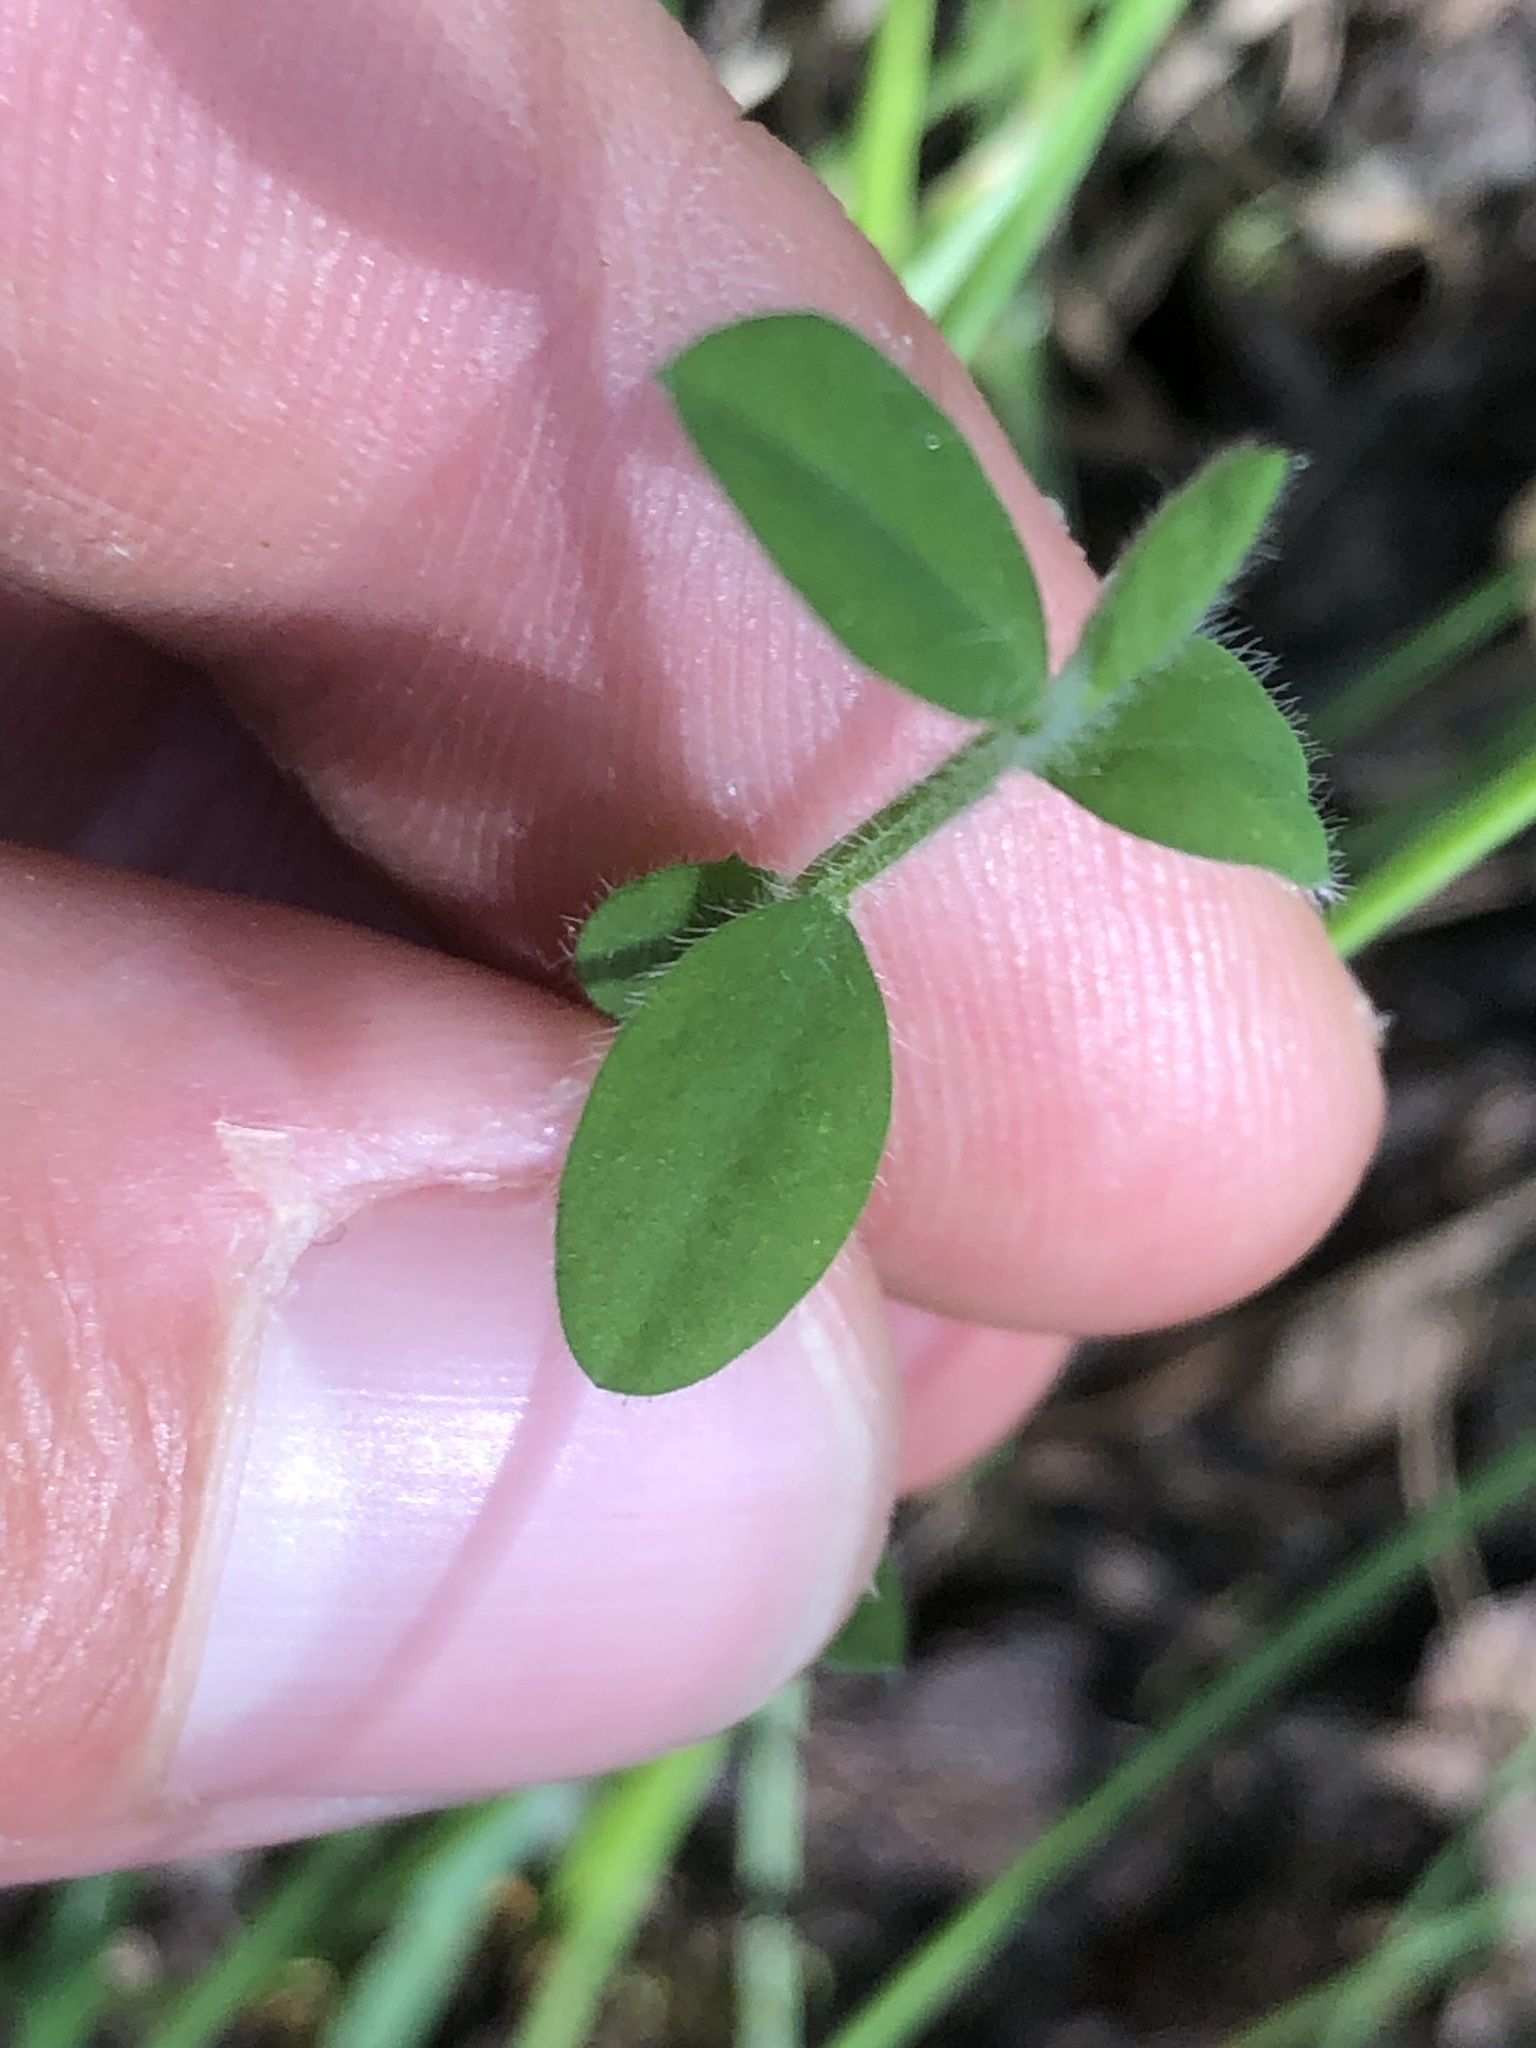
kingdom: Plantae
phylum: Tracheophyta
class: Magnoliopsida
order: Fabales
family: Fabaceae
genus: Cytisus
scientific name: Cytisus scoparius
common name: Scotch broom
